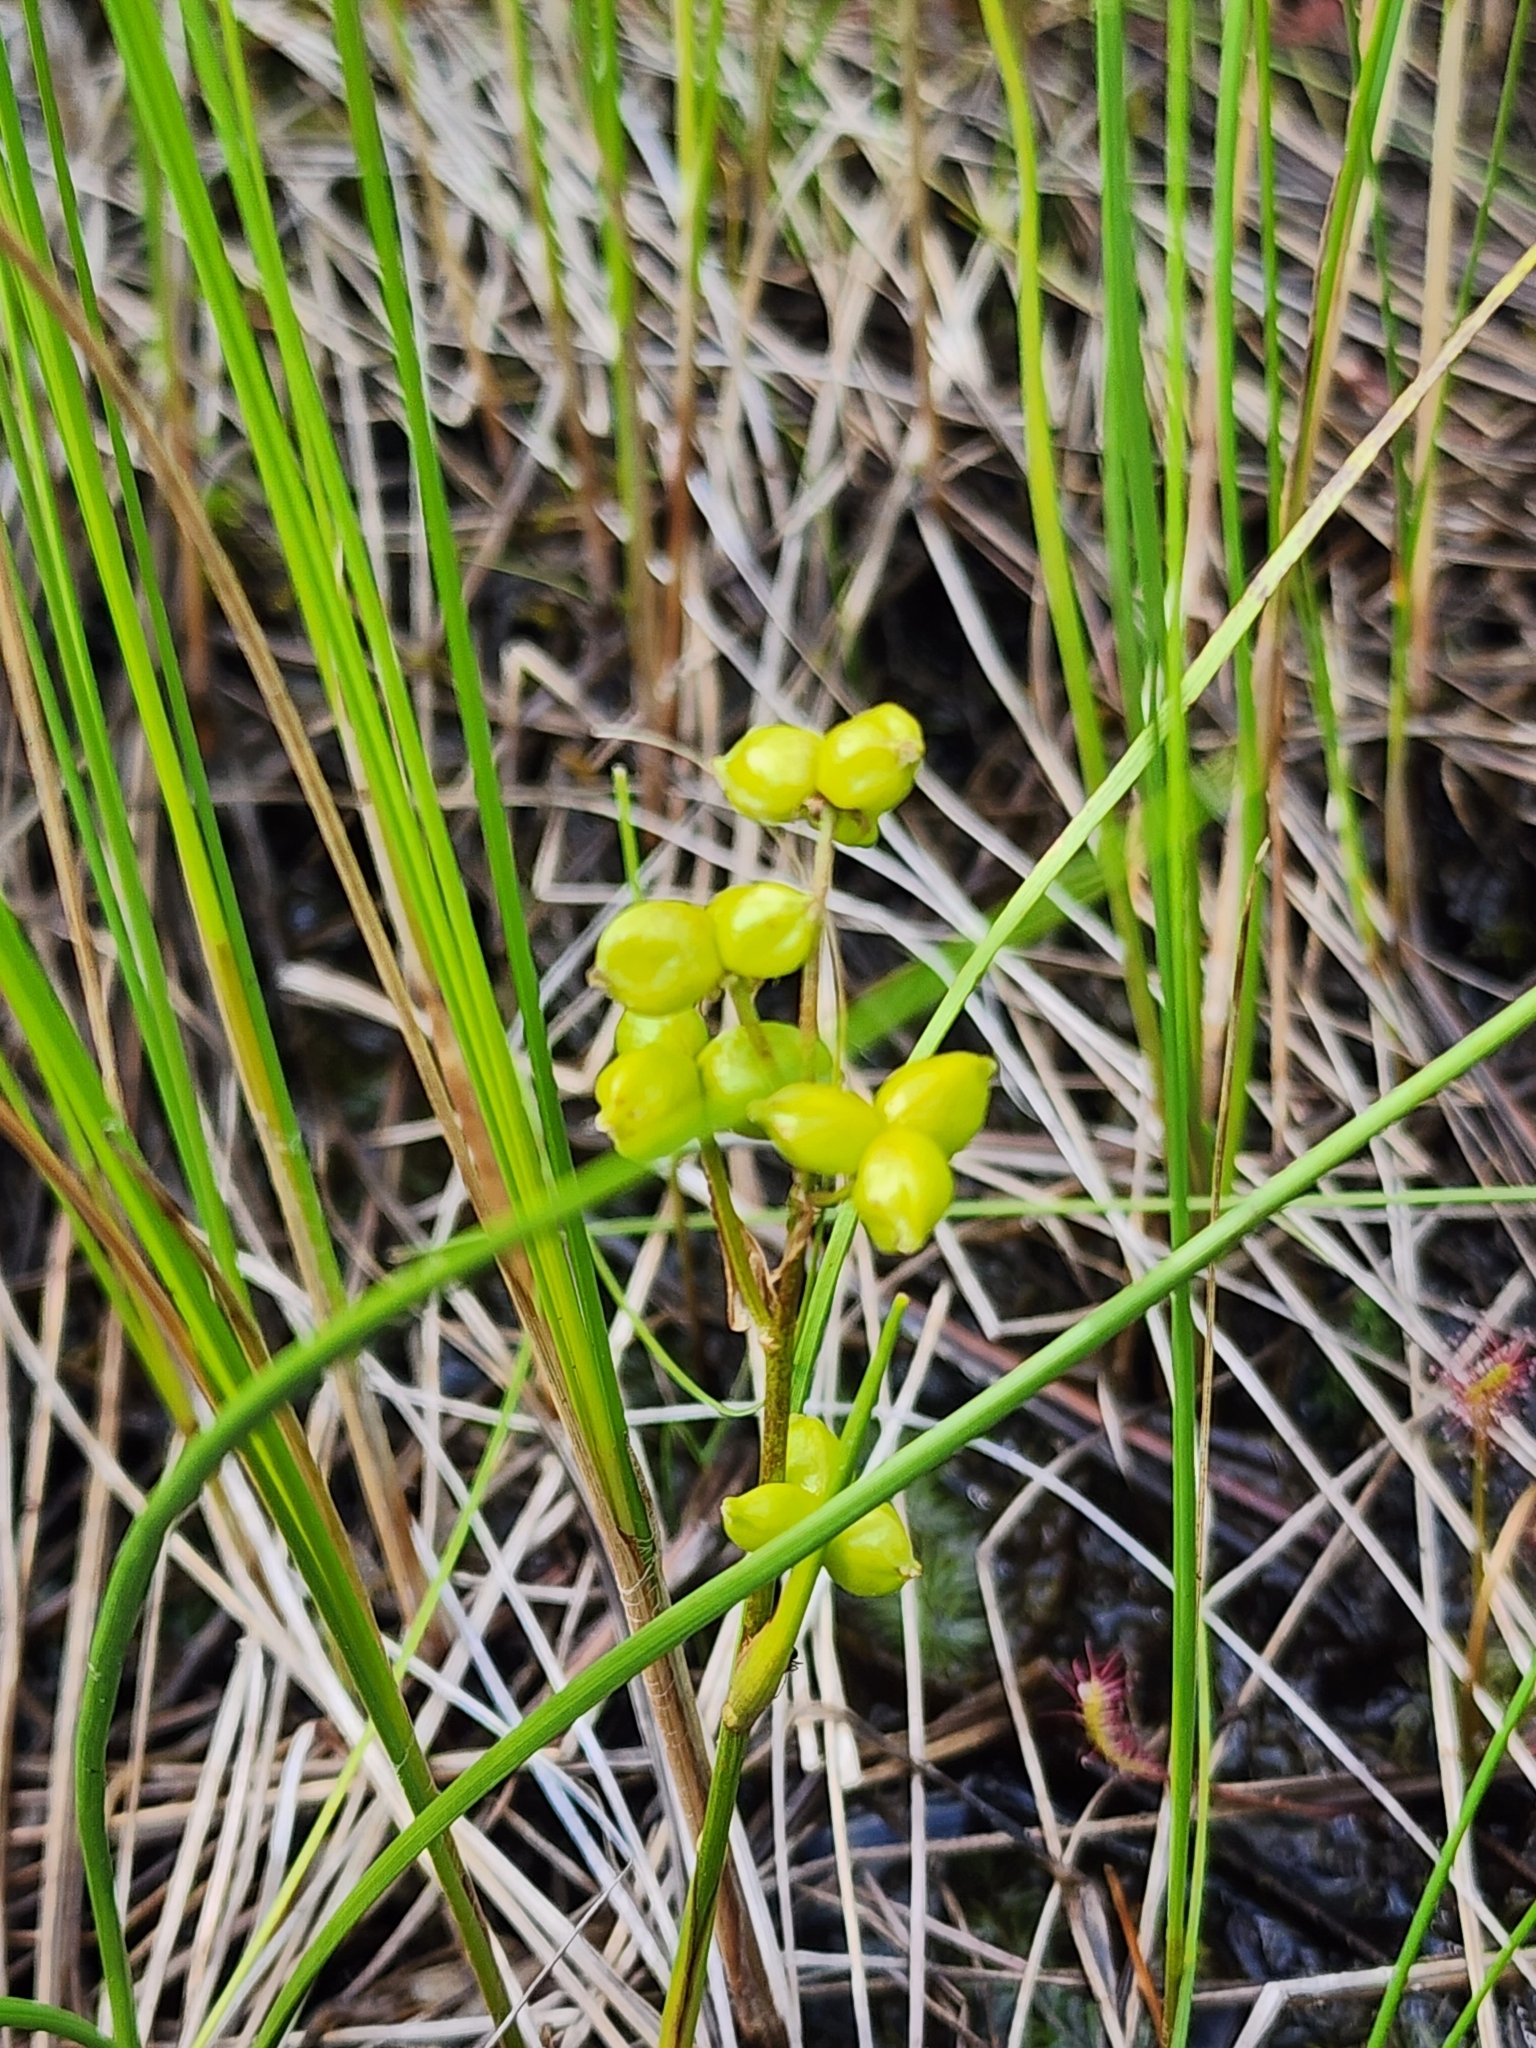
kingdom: Plantae
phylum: Tracheophyta
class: Liliopsida
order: Alismatales
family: Scheuchzeriaceae
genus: Scheuchzeria
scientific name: Scheuchzeria palustris
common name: Rannoch-rush
